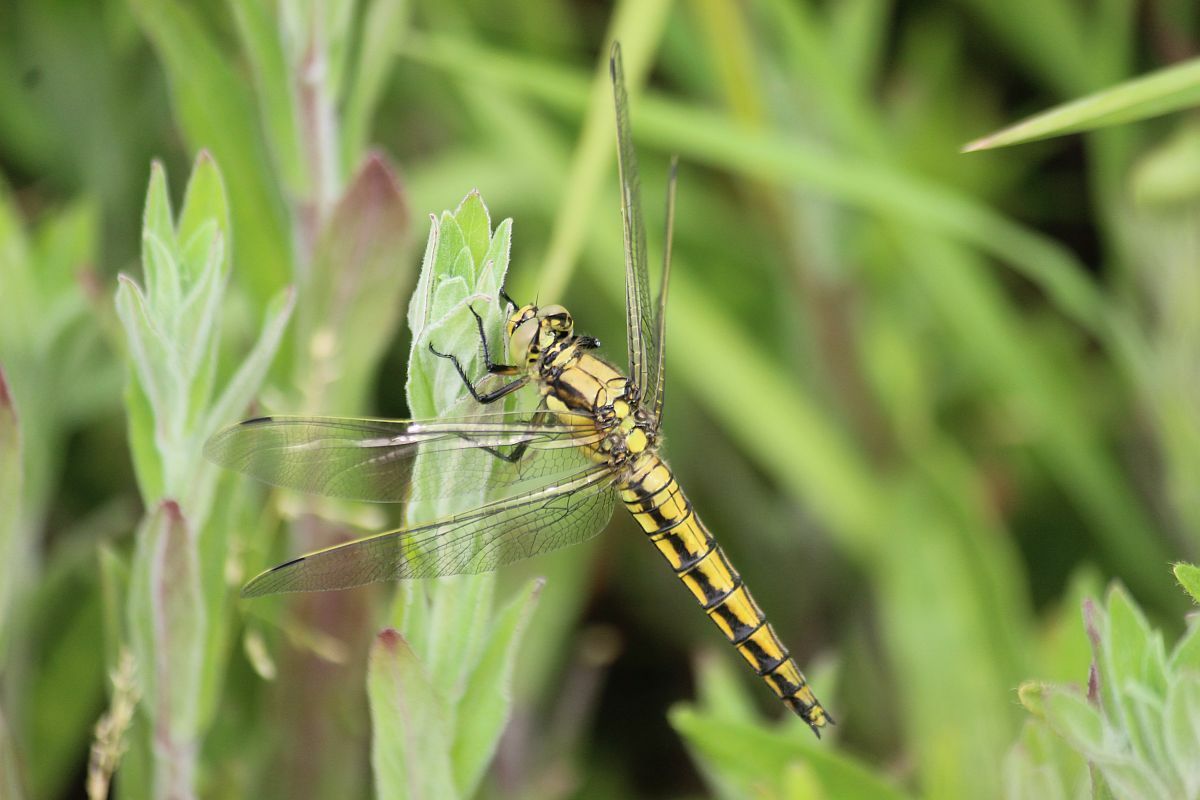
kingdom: Animalia
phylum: Arthropoda
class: Insecta
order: Odonata
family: Libellulidae
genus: Orthetrum
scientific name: Orthetrum cancellatum
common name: Black-tailed skimmer
